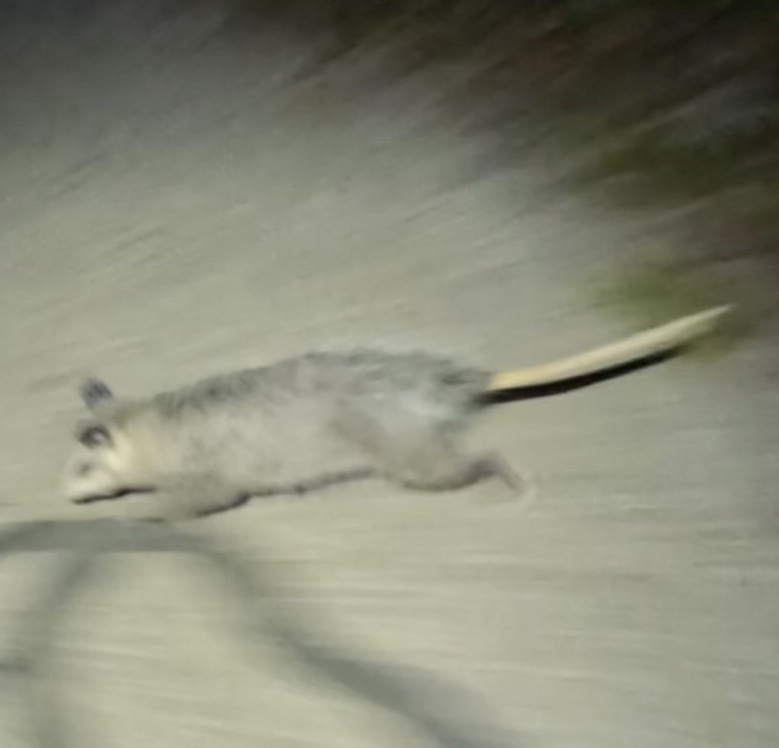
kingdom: Animalia
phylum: Chordata
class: Mammalia
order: Didelphimorphia
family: Didelphidae
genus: Didelphis
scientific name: Didelphis virginiana
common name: Virginia opossum
